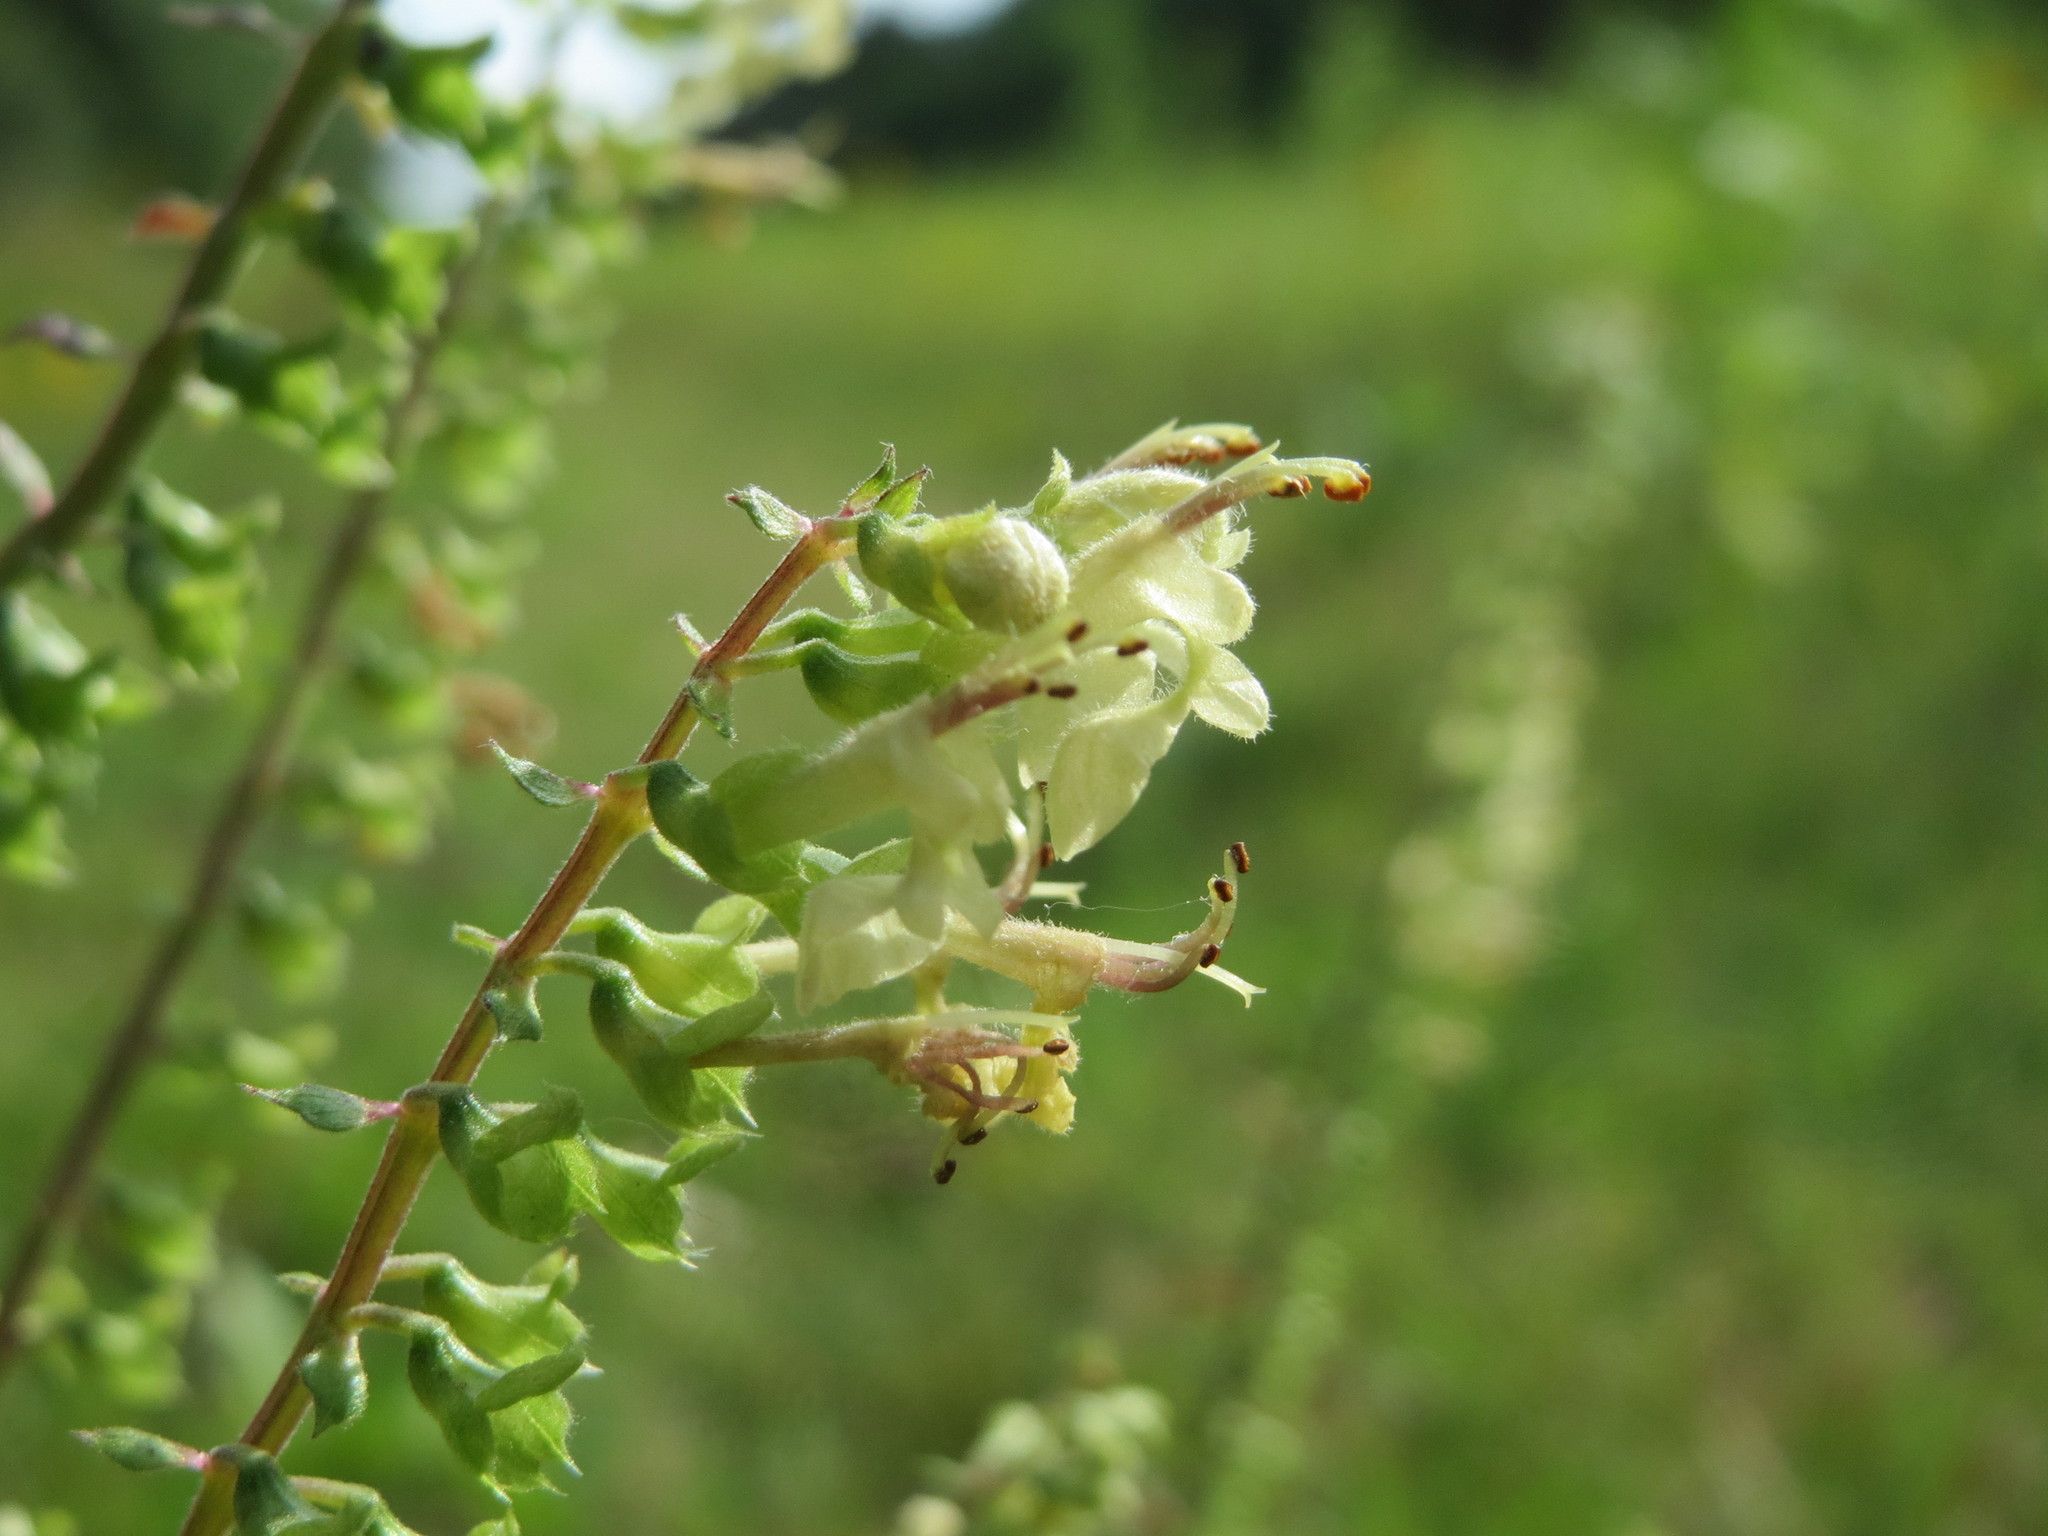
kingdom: Plantae
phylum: Tracheophyta
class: Magnoliopsida
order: Lamiales
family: Lamiaceae
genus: Teucrium
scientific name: Teucrium scorodonia
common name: Woodland germander
